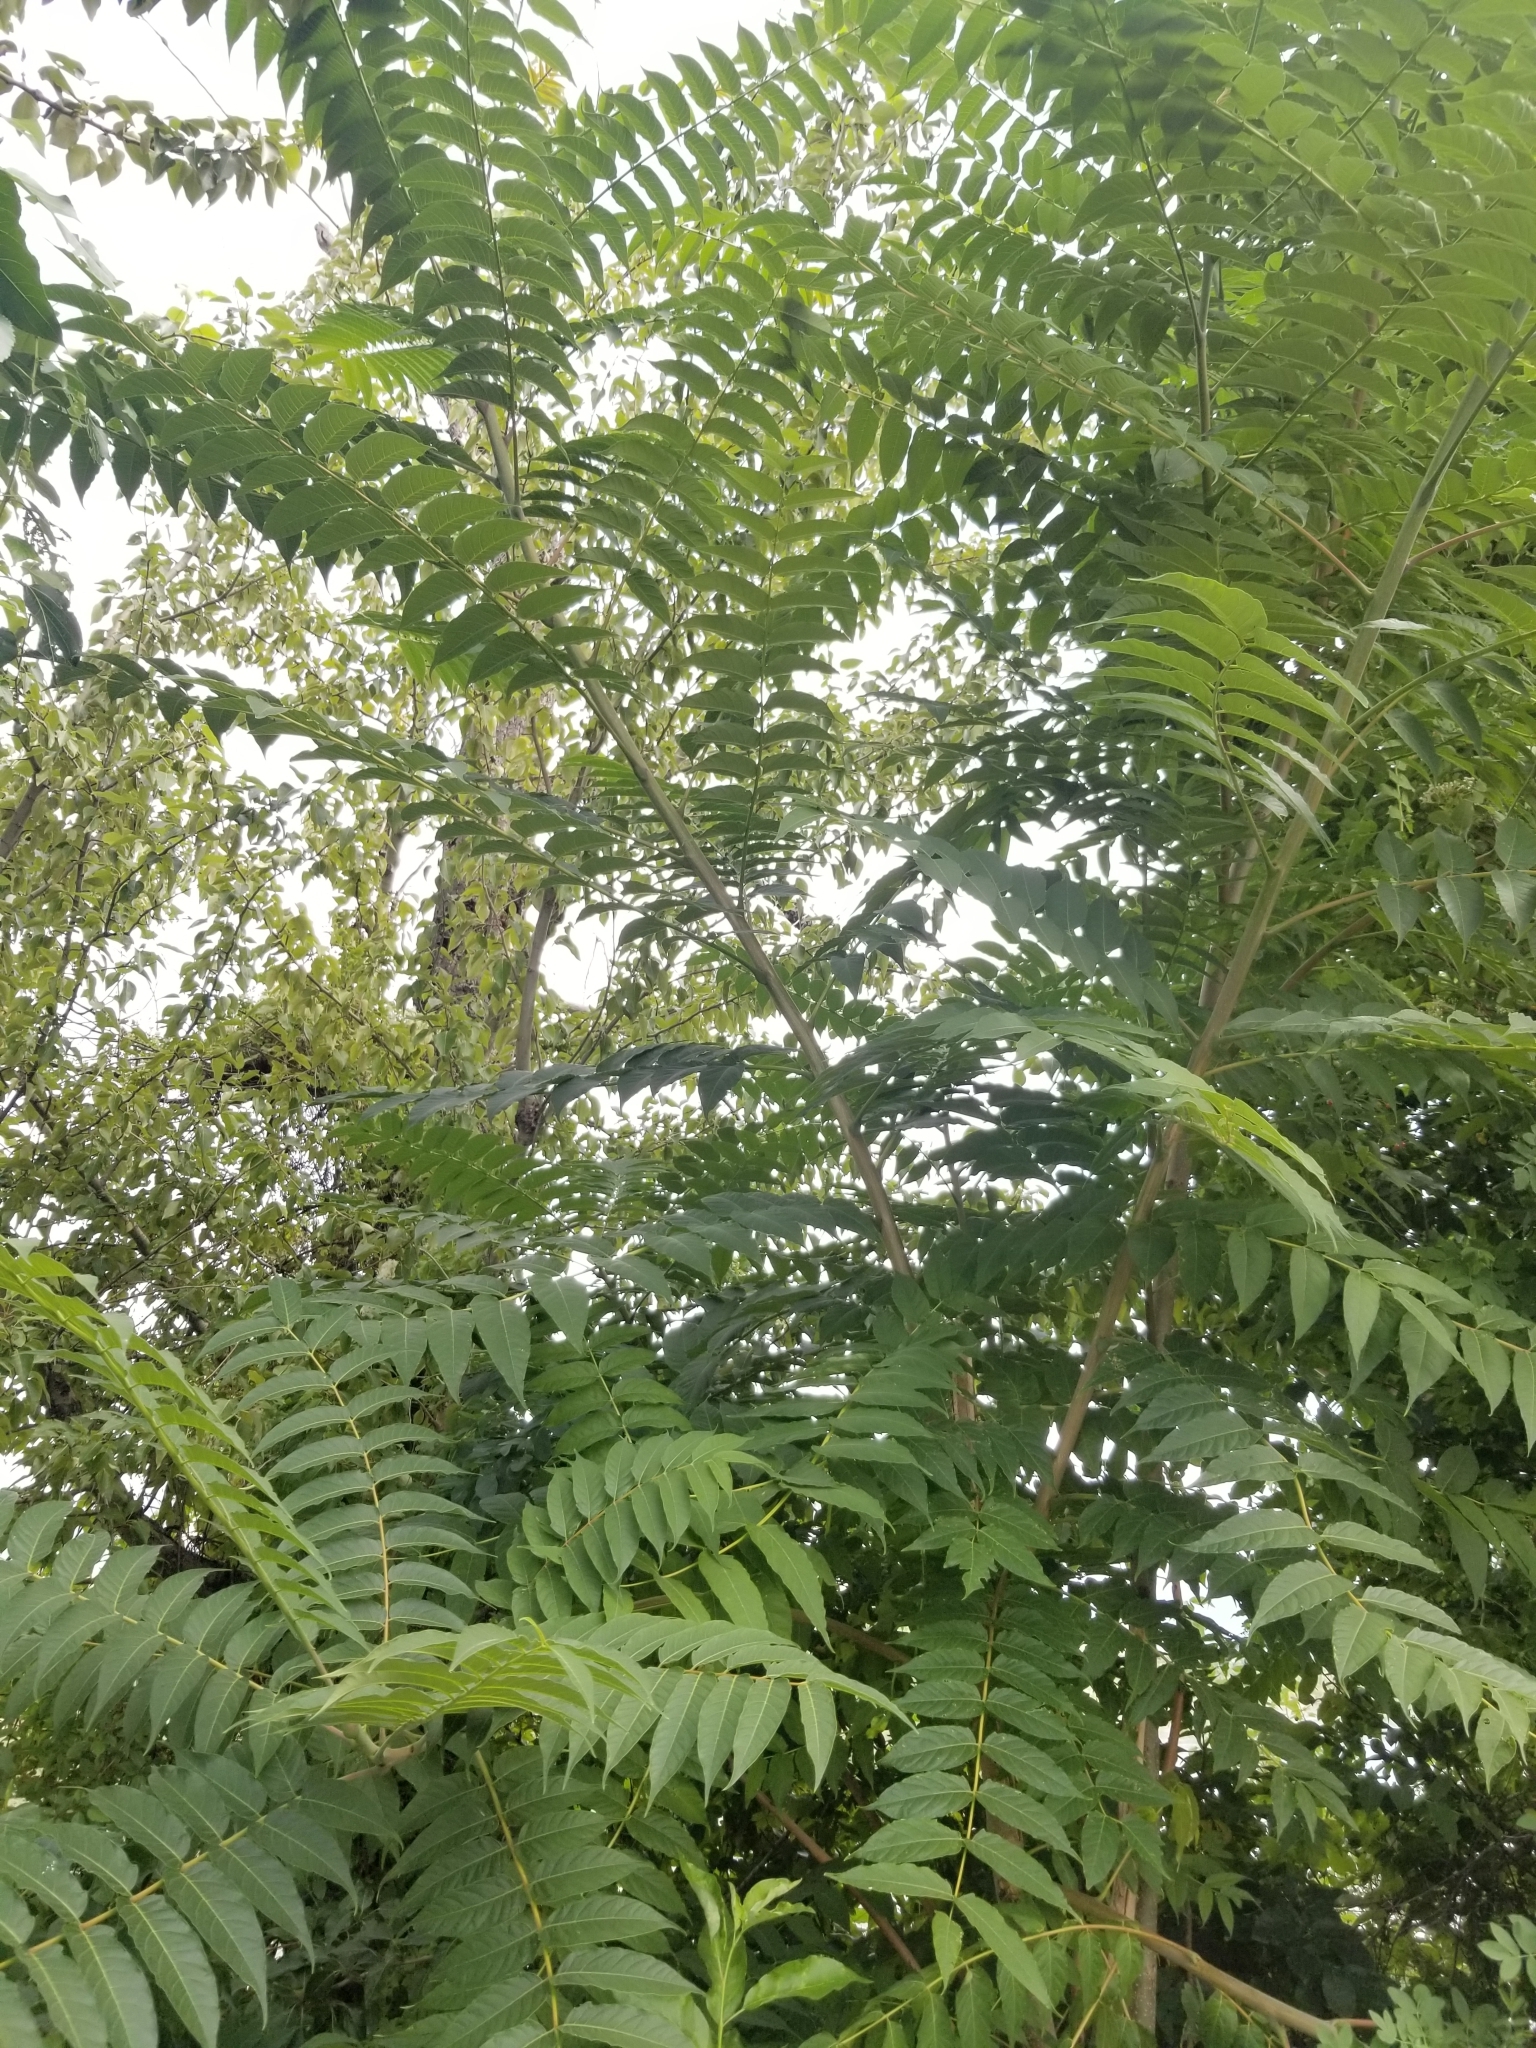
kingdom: Plantae
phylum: Tracheophyta
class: Magnoliopsida
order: Sapindales
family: Simaroubaceae
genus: Ailanthus
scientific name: Ailanthus altissima
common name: Tree-of-heaven
